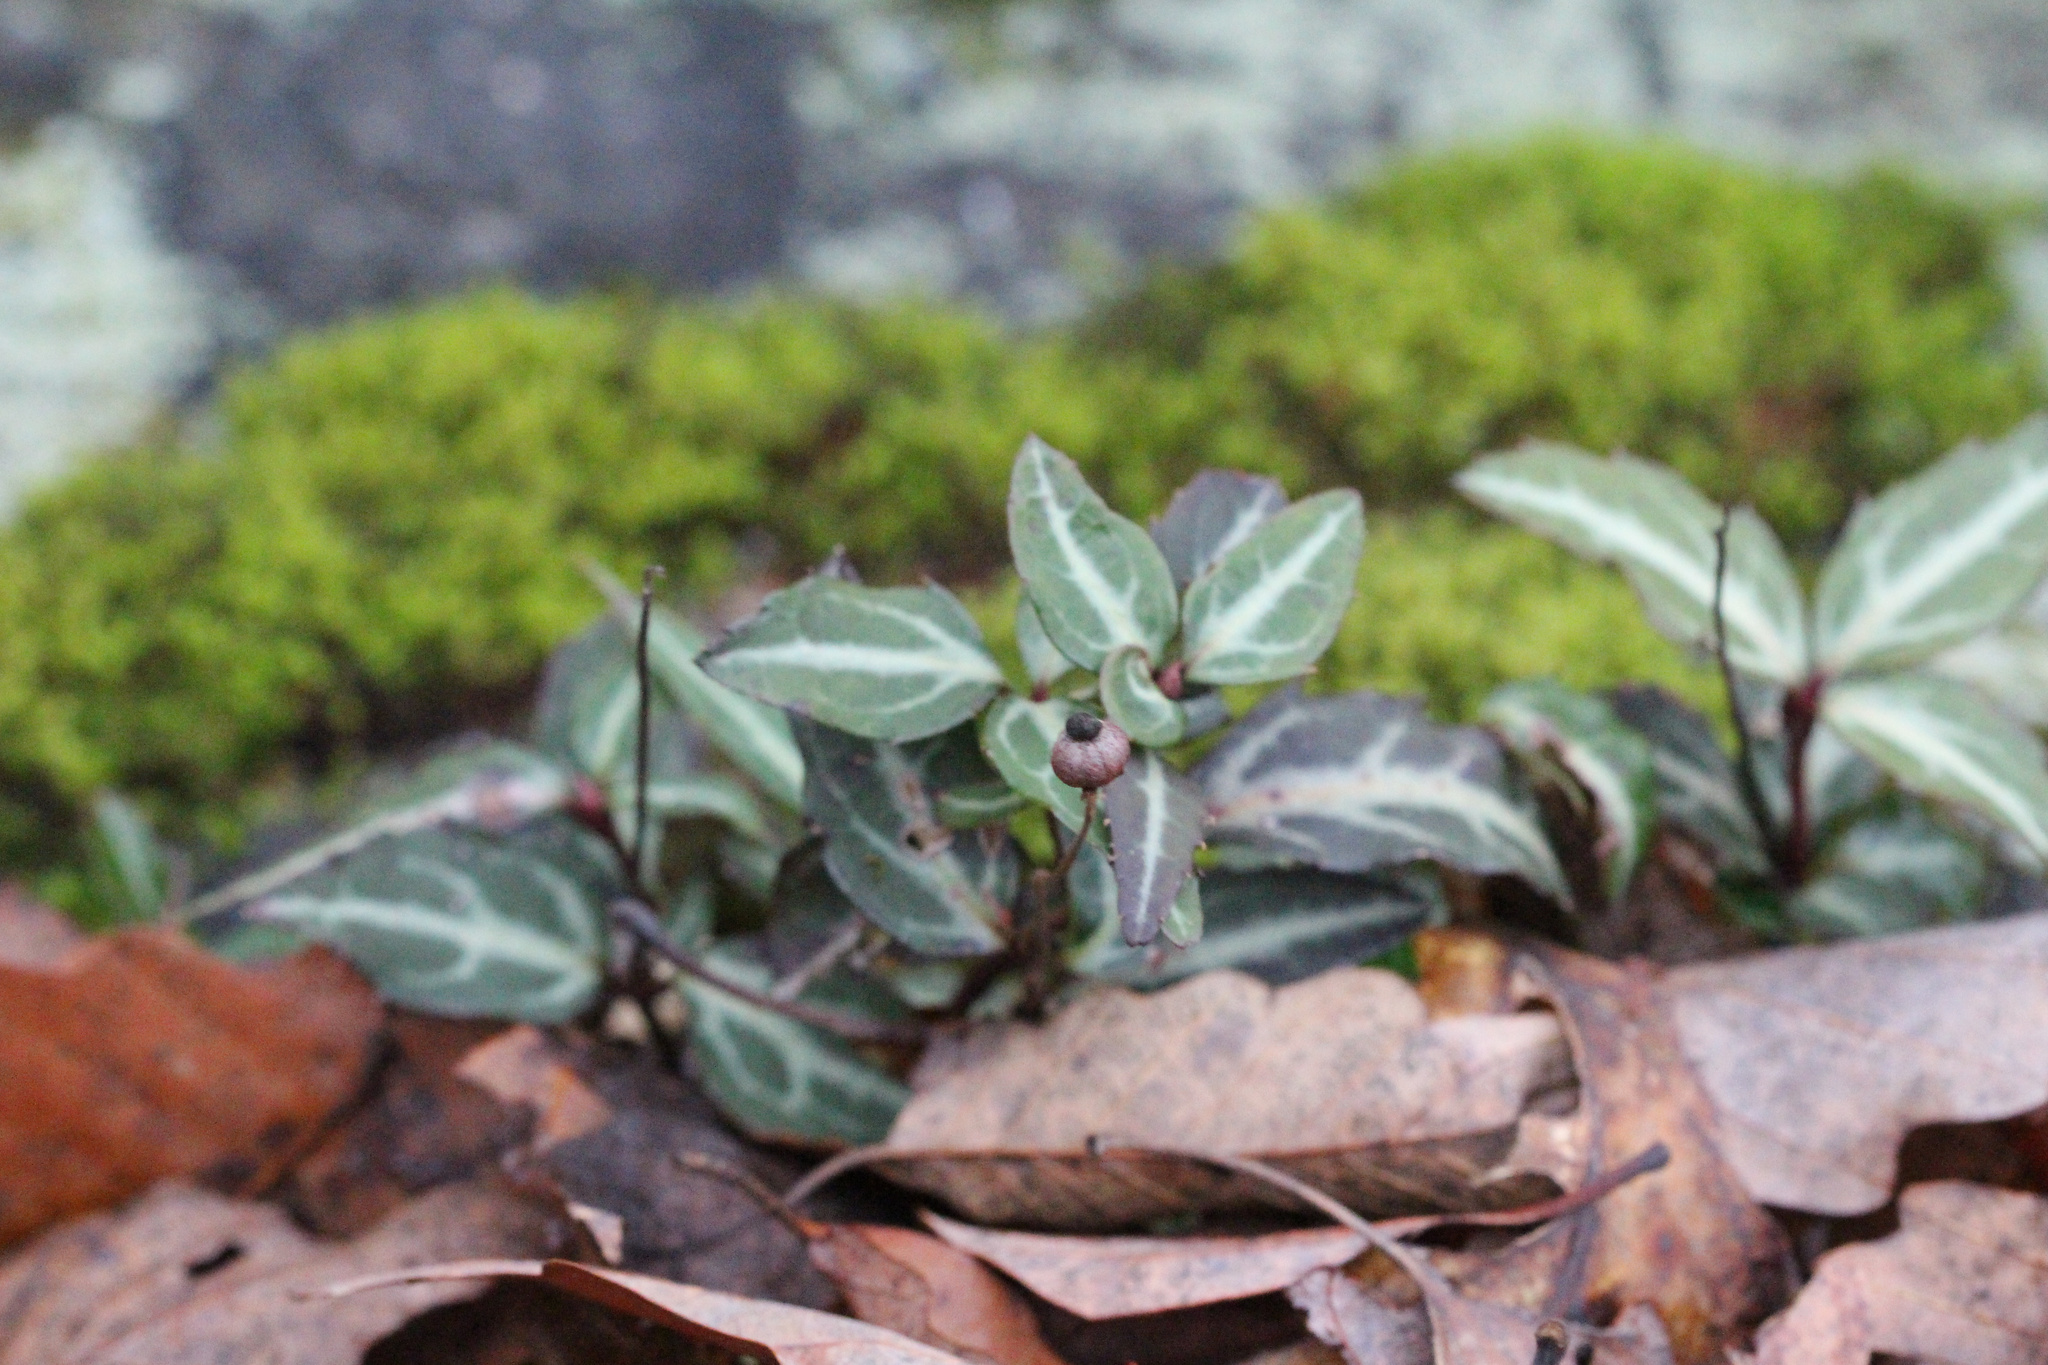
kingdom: Plantae
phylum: Tracheophyta
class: Magnoliopsida
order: Ericales
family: Ericaceae
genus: Chimaphila
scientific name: Chimaphila maculata
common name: Spotted pipsissewa
